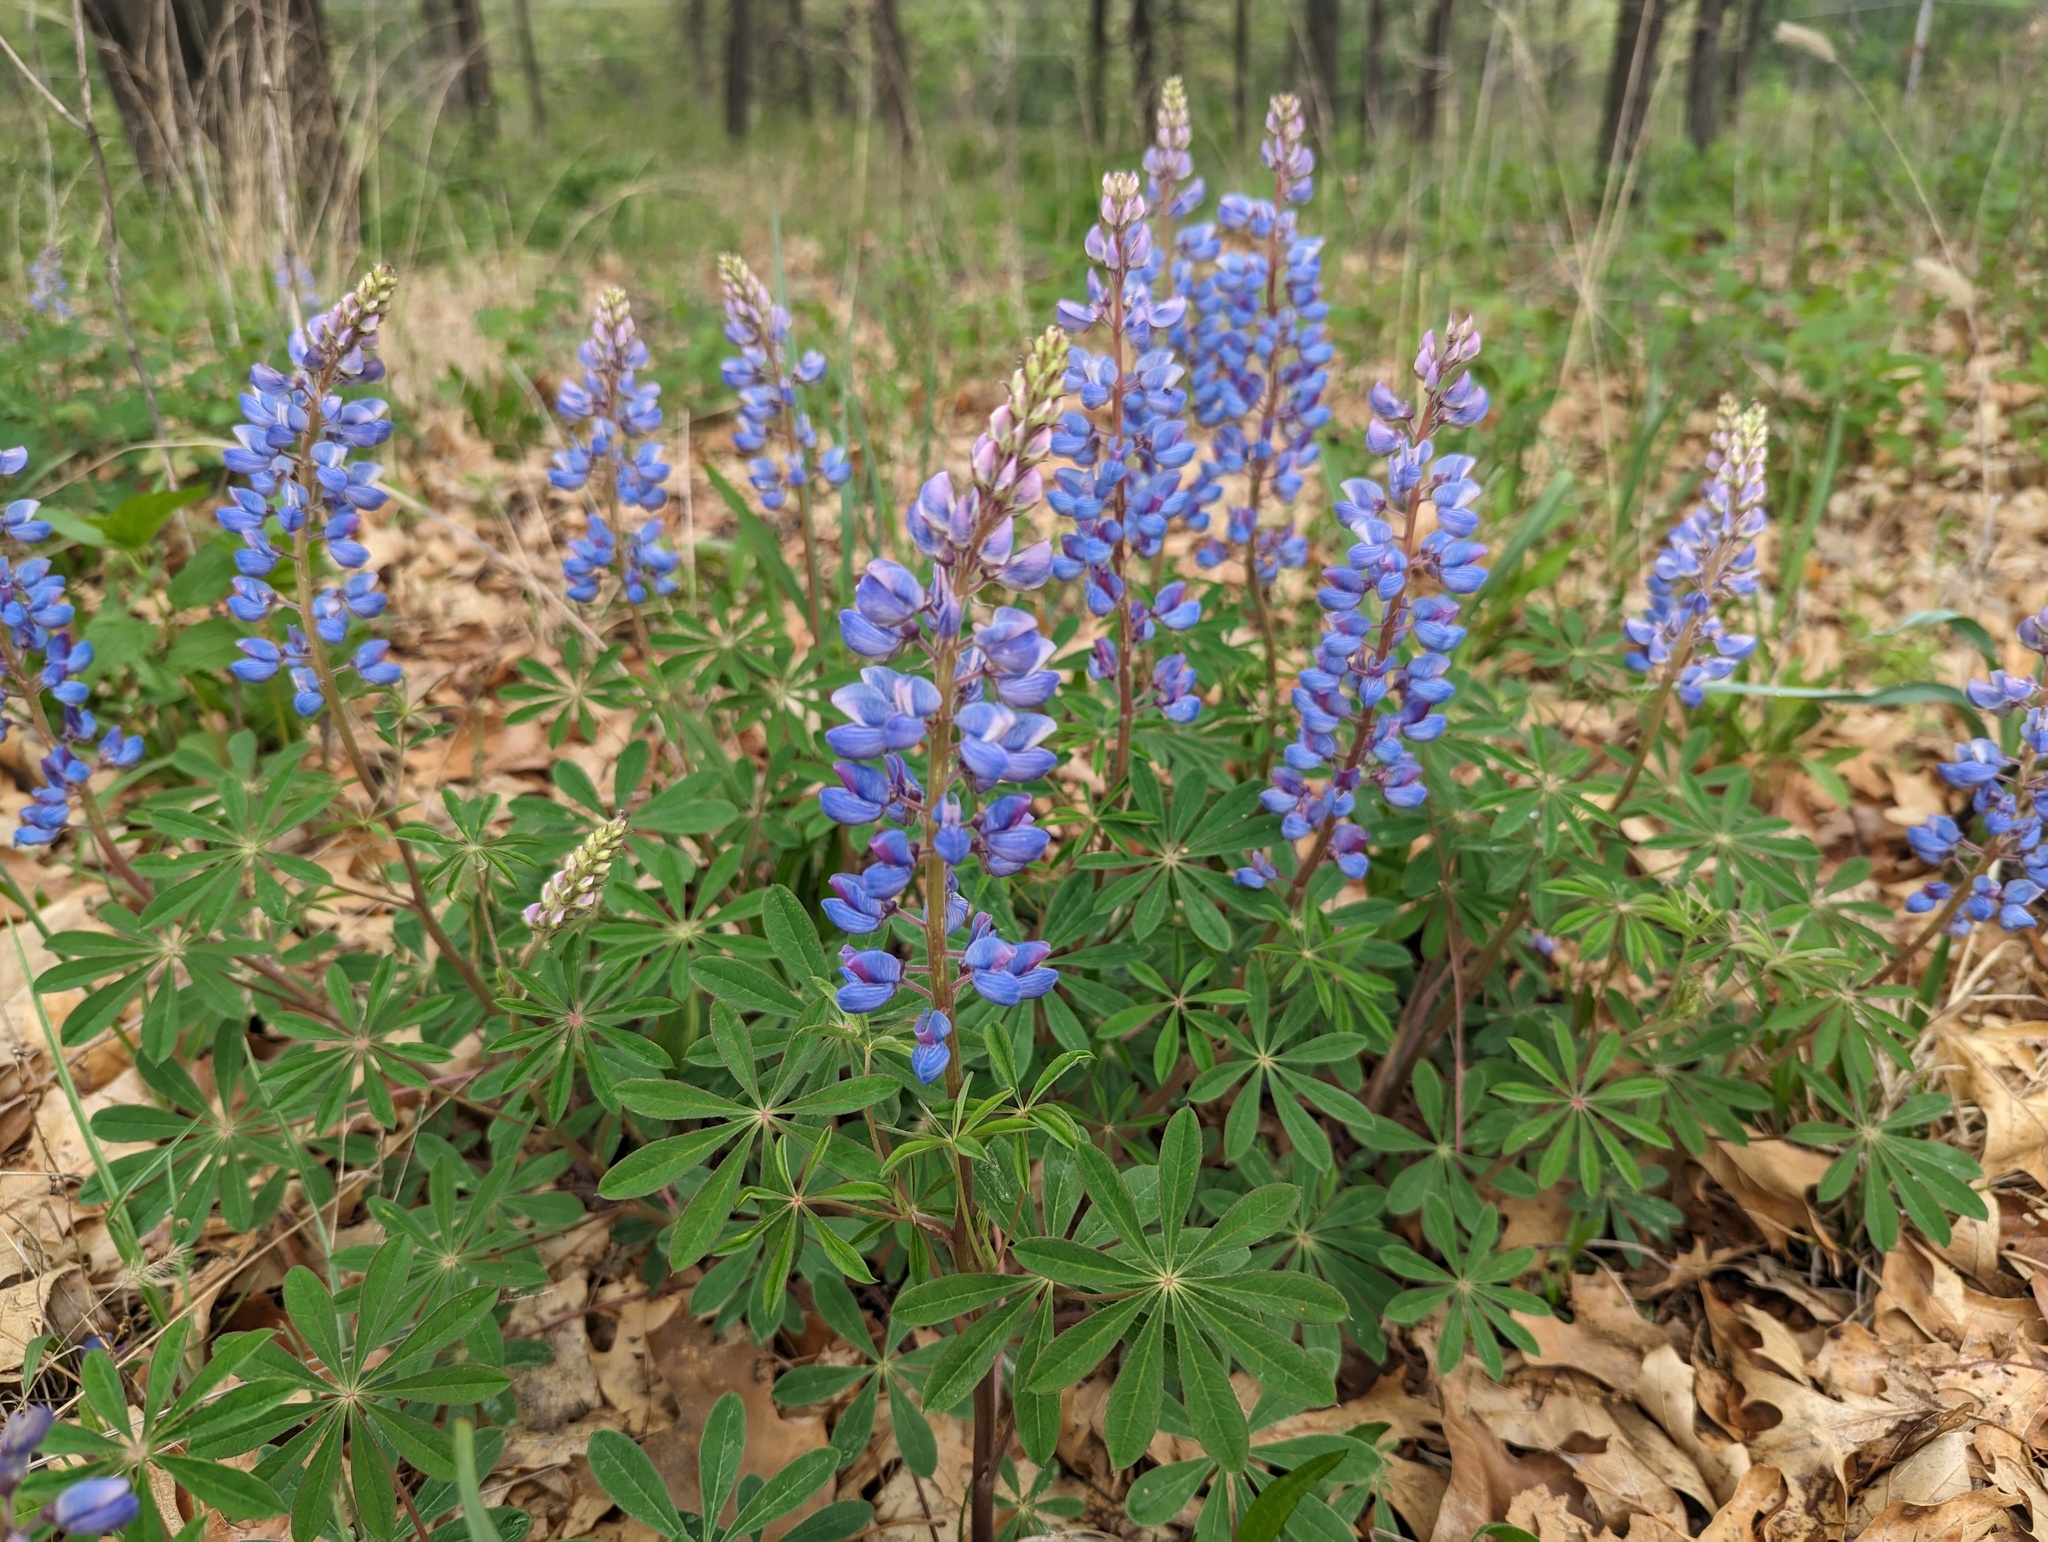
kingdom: Plantae
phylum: Tracheophyta
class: Magnoliopsida
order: Fabales
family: Fabaceae
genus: Lupinus
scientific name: Lupinus perennis
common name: Sundial lupine
